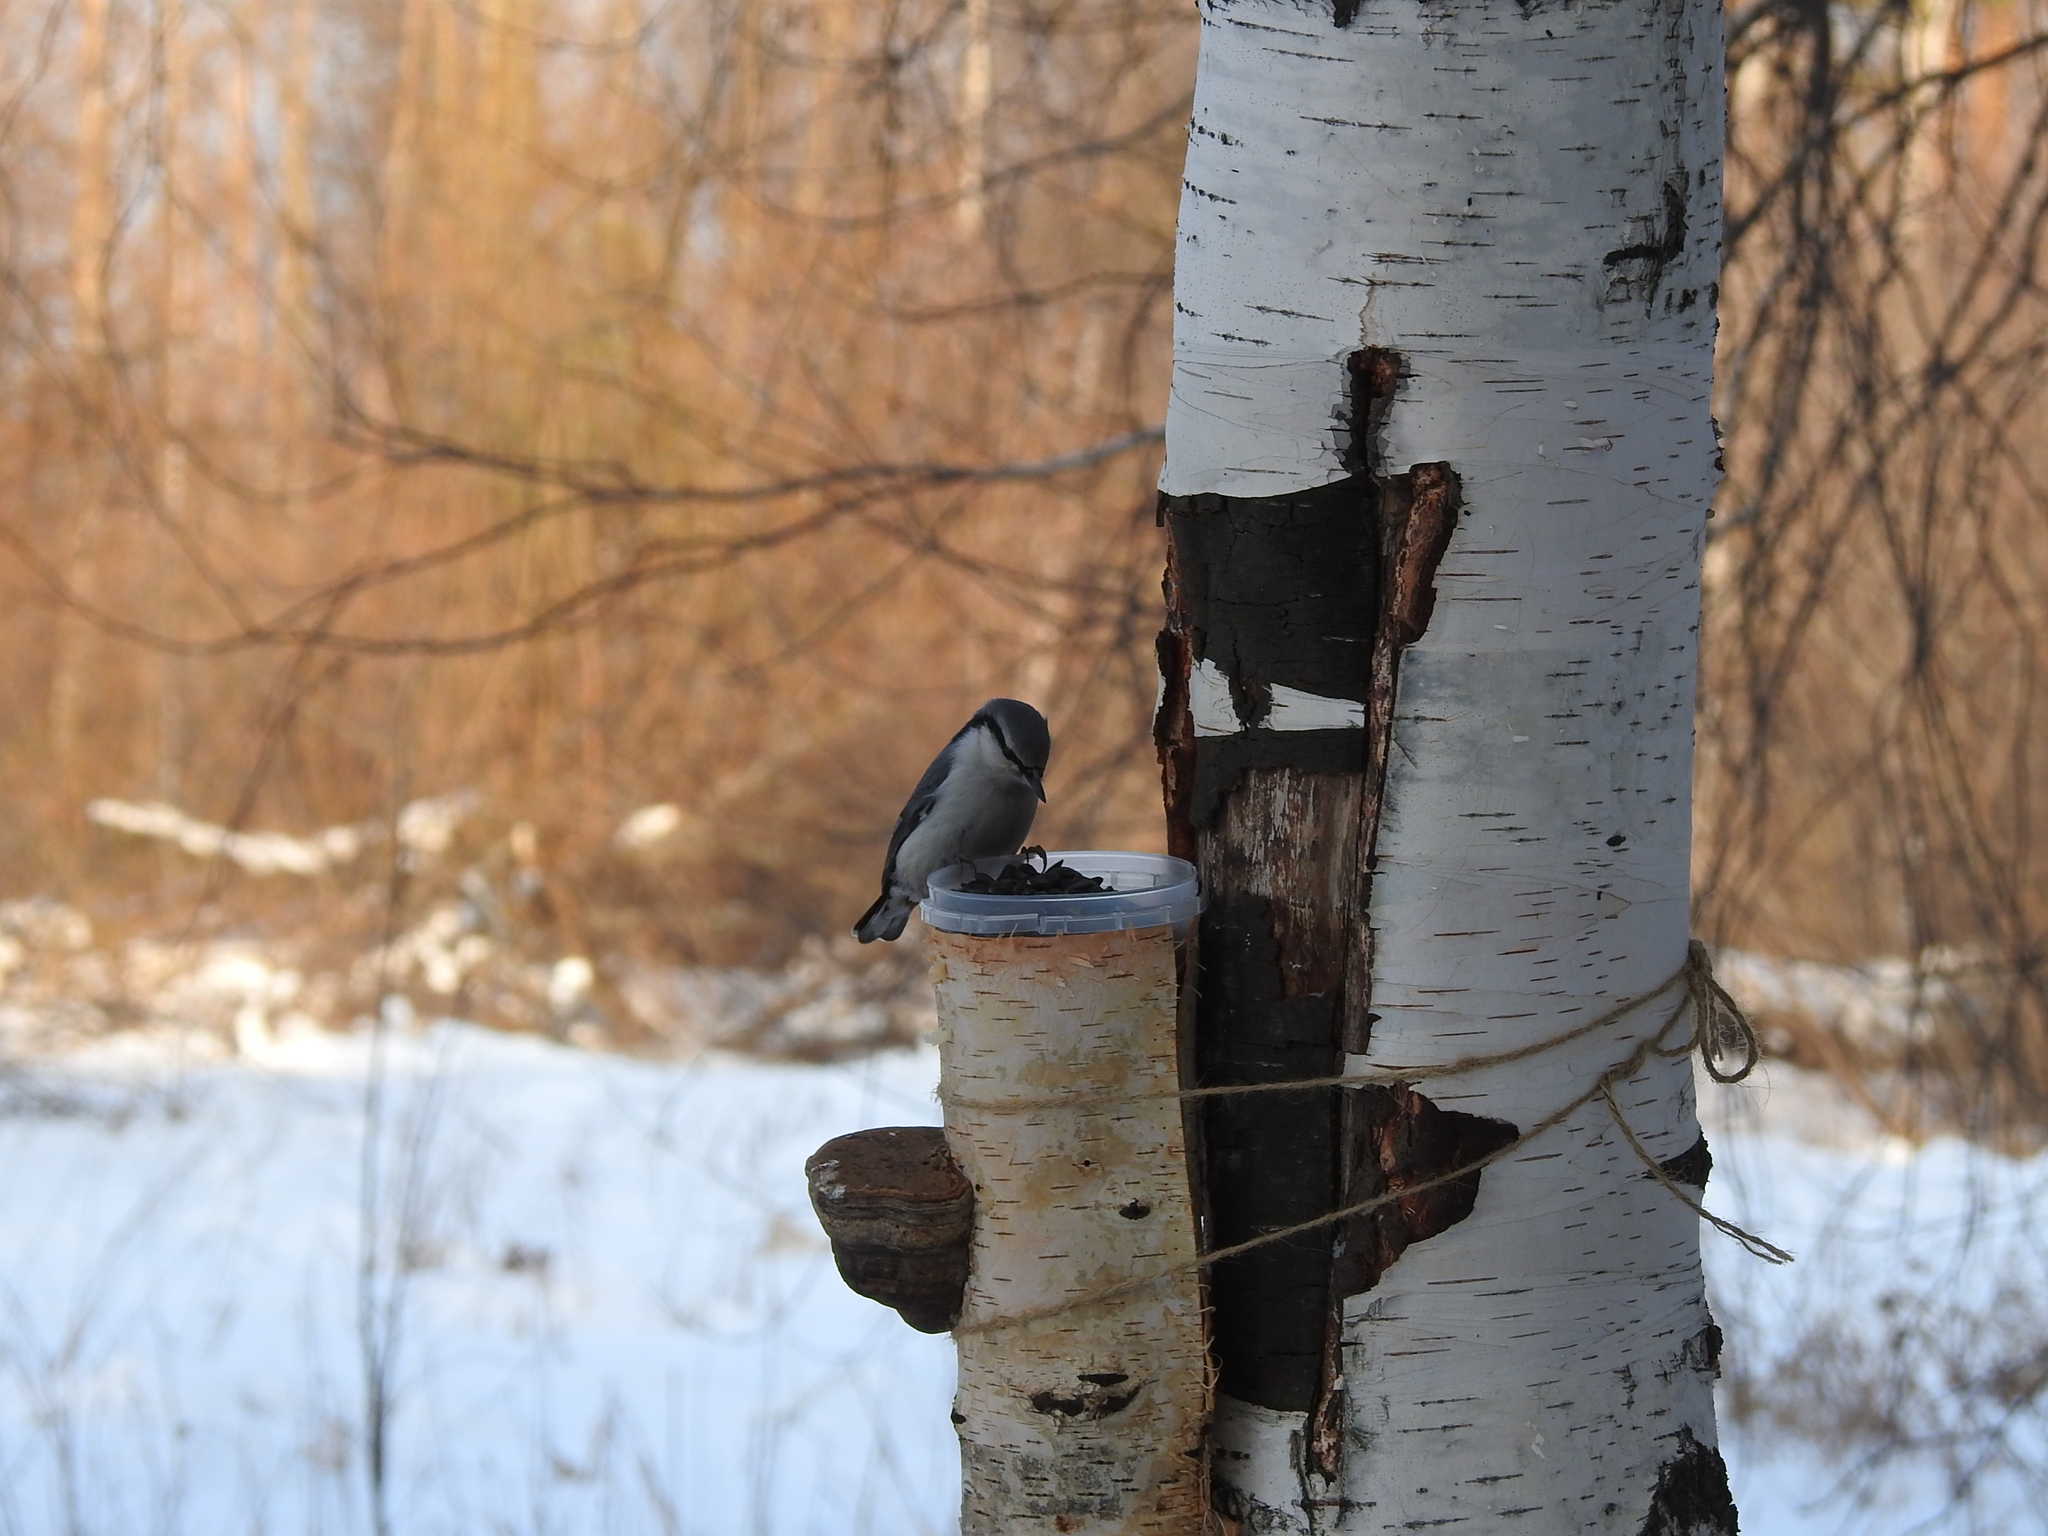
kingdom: Animalia
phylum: Chordata
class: Aves
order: Passeriformes
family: Sittidae
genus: Sitta
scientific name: Sitta europaea
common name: Eurasian nuthatch
